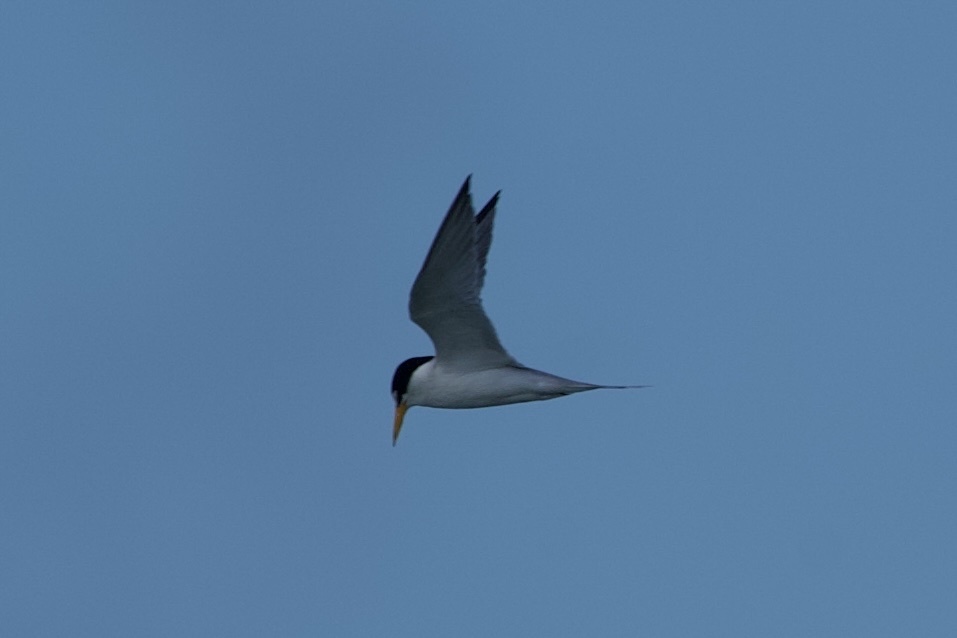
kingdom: Animalia
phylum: Chordata
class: Aves
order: Charadriiformes
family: Laridae
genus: Sternula
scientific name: Sternula antillarum
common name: Least tern
